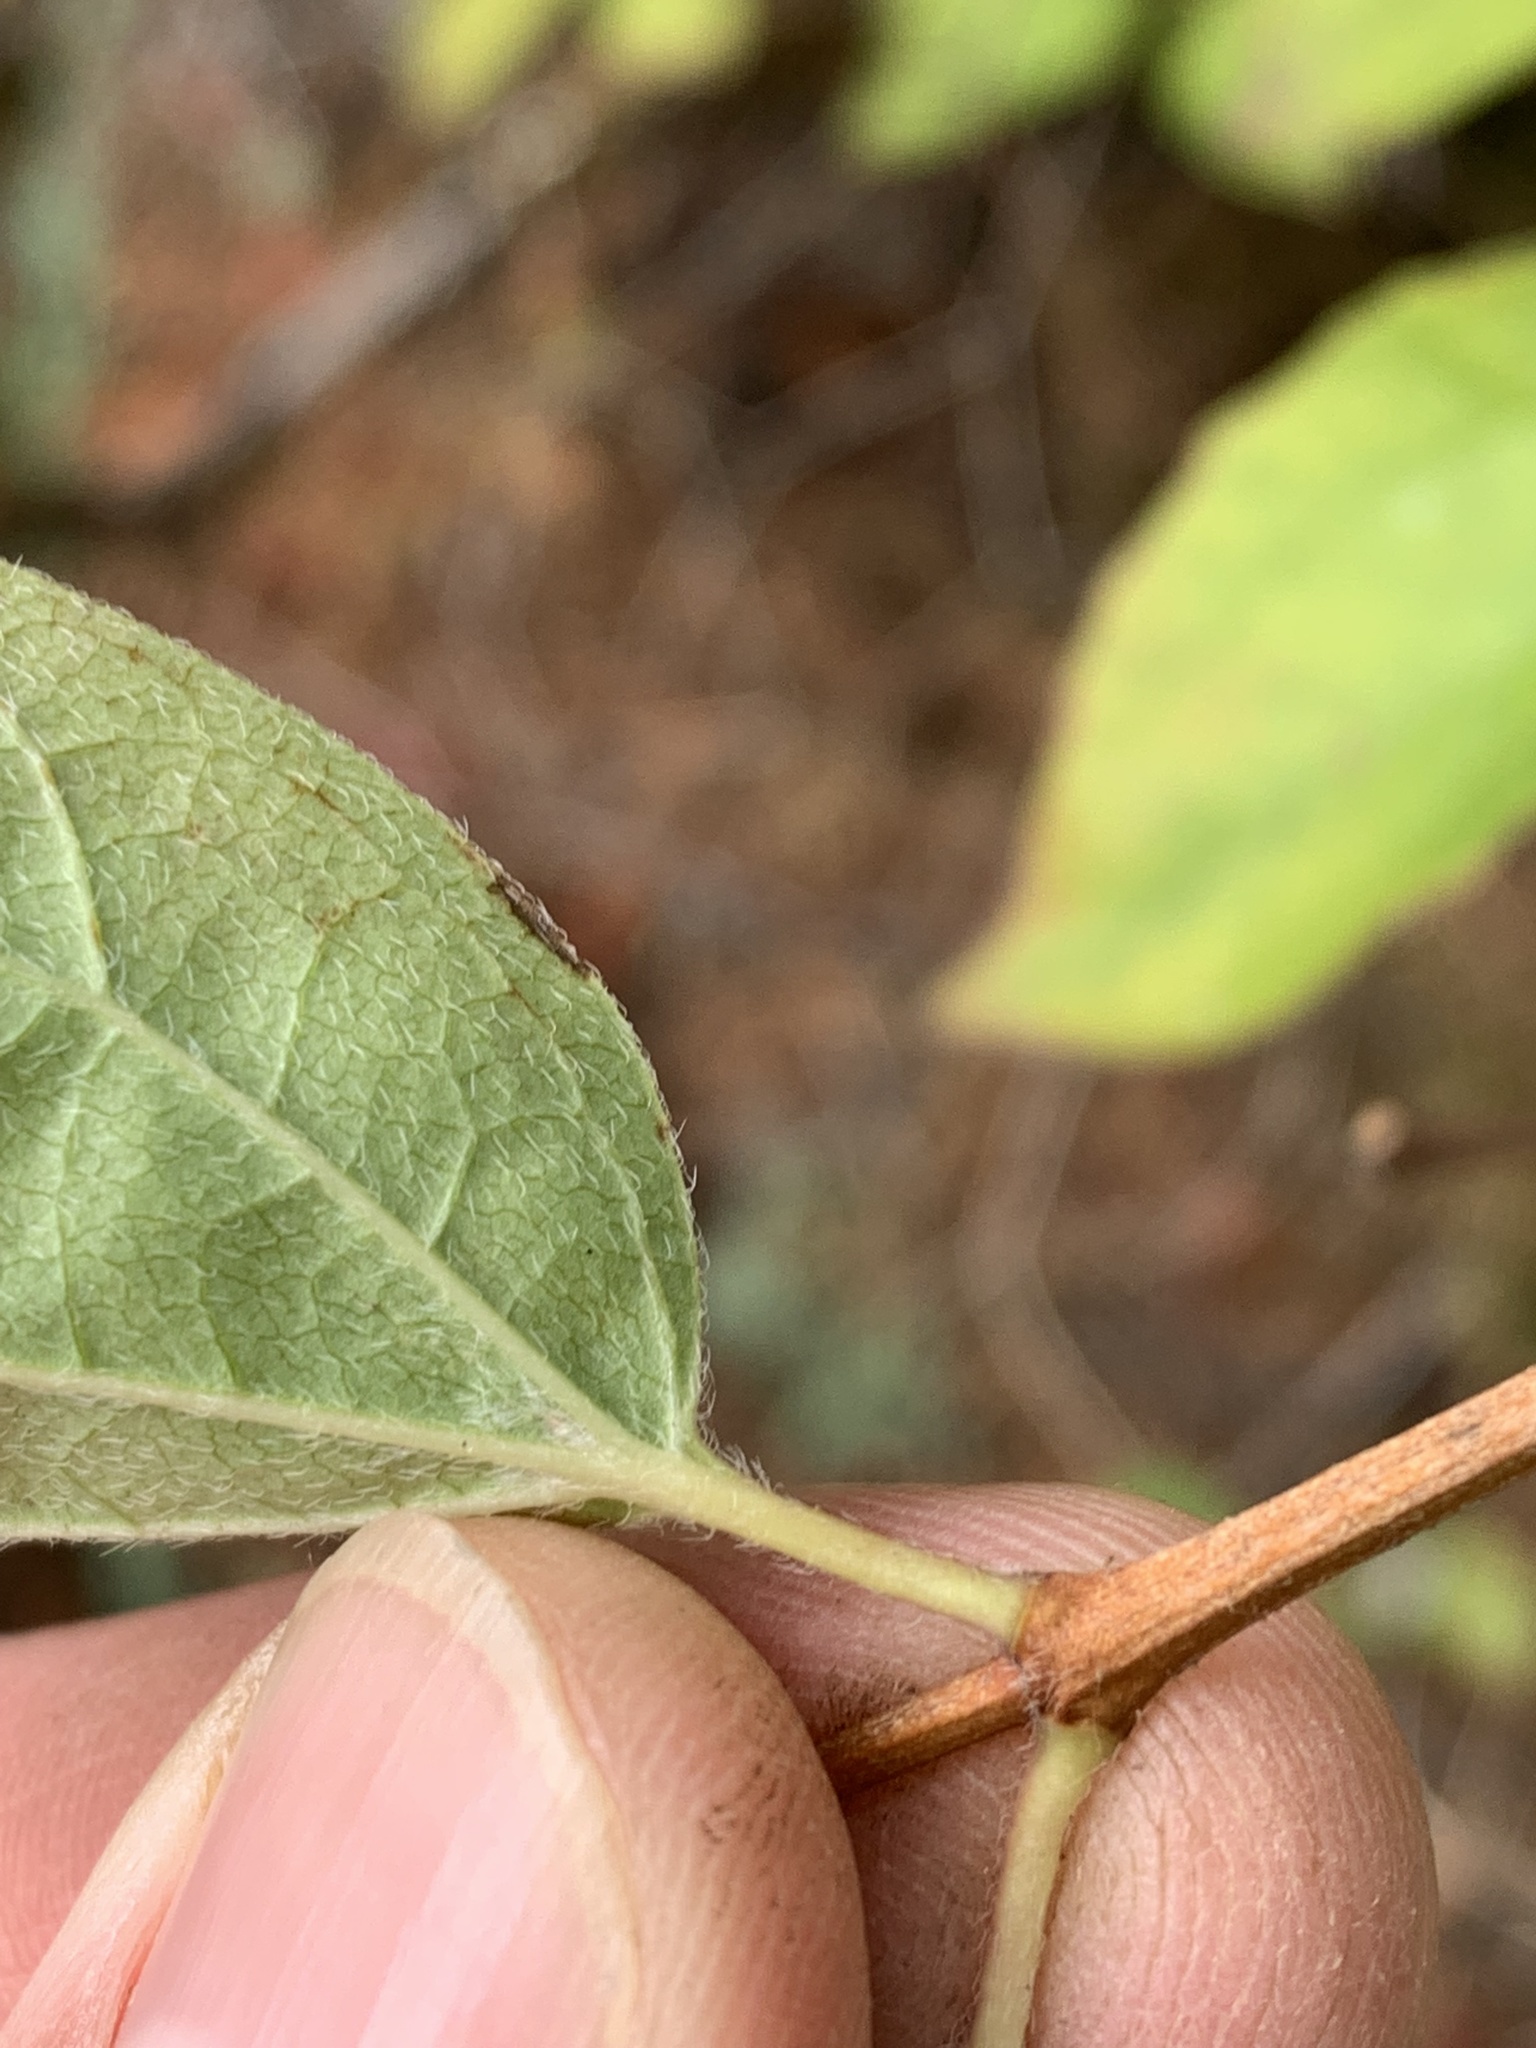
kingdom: Plantae
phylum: Tracheophyta
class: Magnoliopsida
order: Cornales
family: Hydrangeaceae
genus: Philadelphus
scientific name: Philadelphus lewisii
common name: Lewis's mock orange
